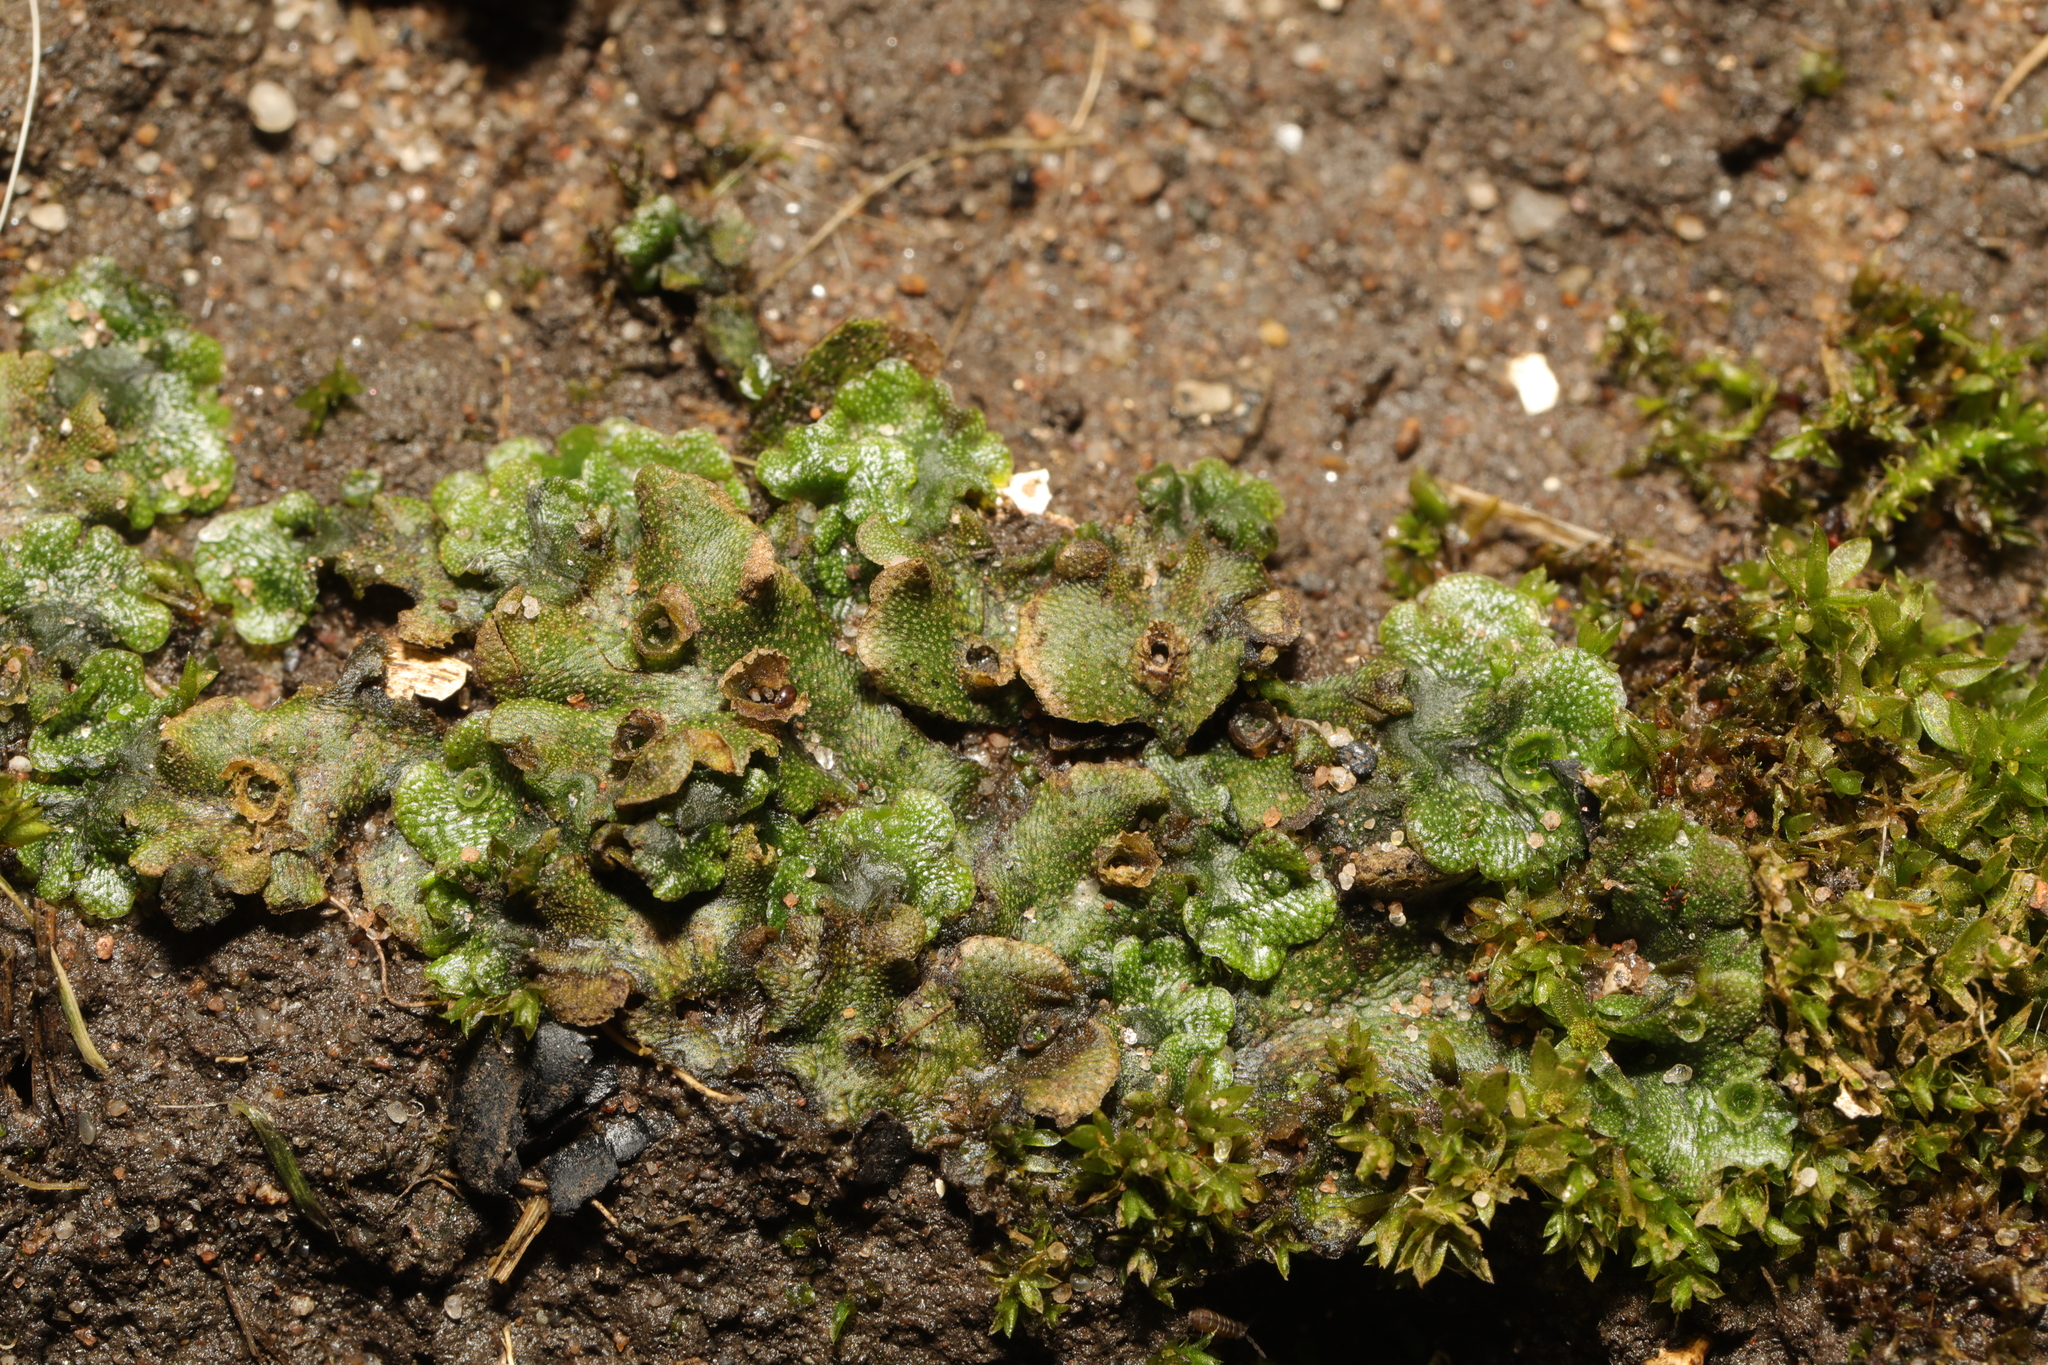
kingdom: Plantae
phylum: Marchantiophyta
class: Marchantiopsida
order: Marchantiales
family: Marchantiaceae
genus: Marchantia
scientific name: Marchantia polymorpha
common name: Common liverwort
